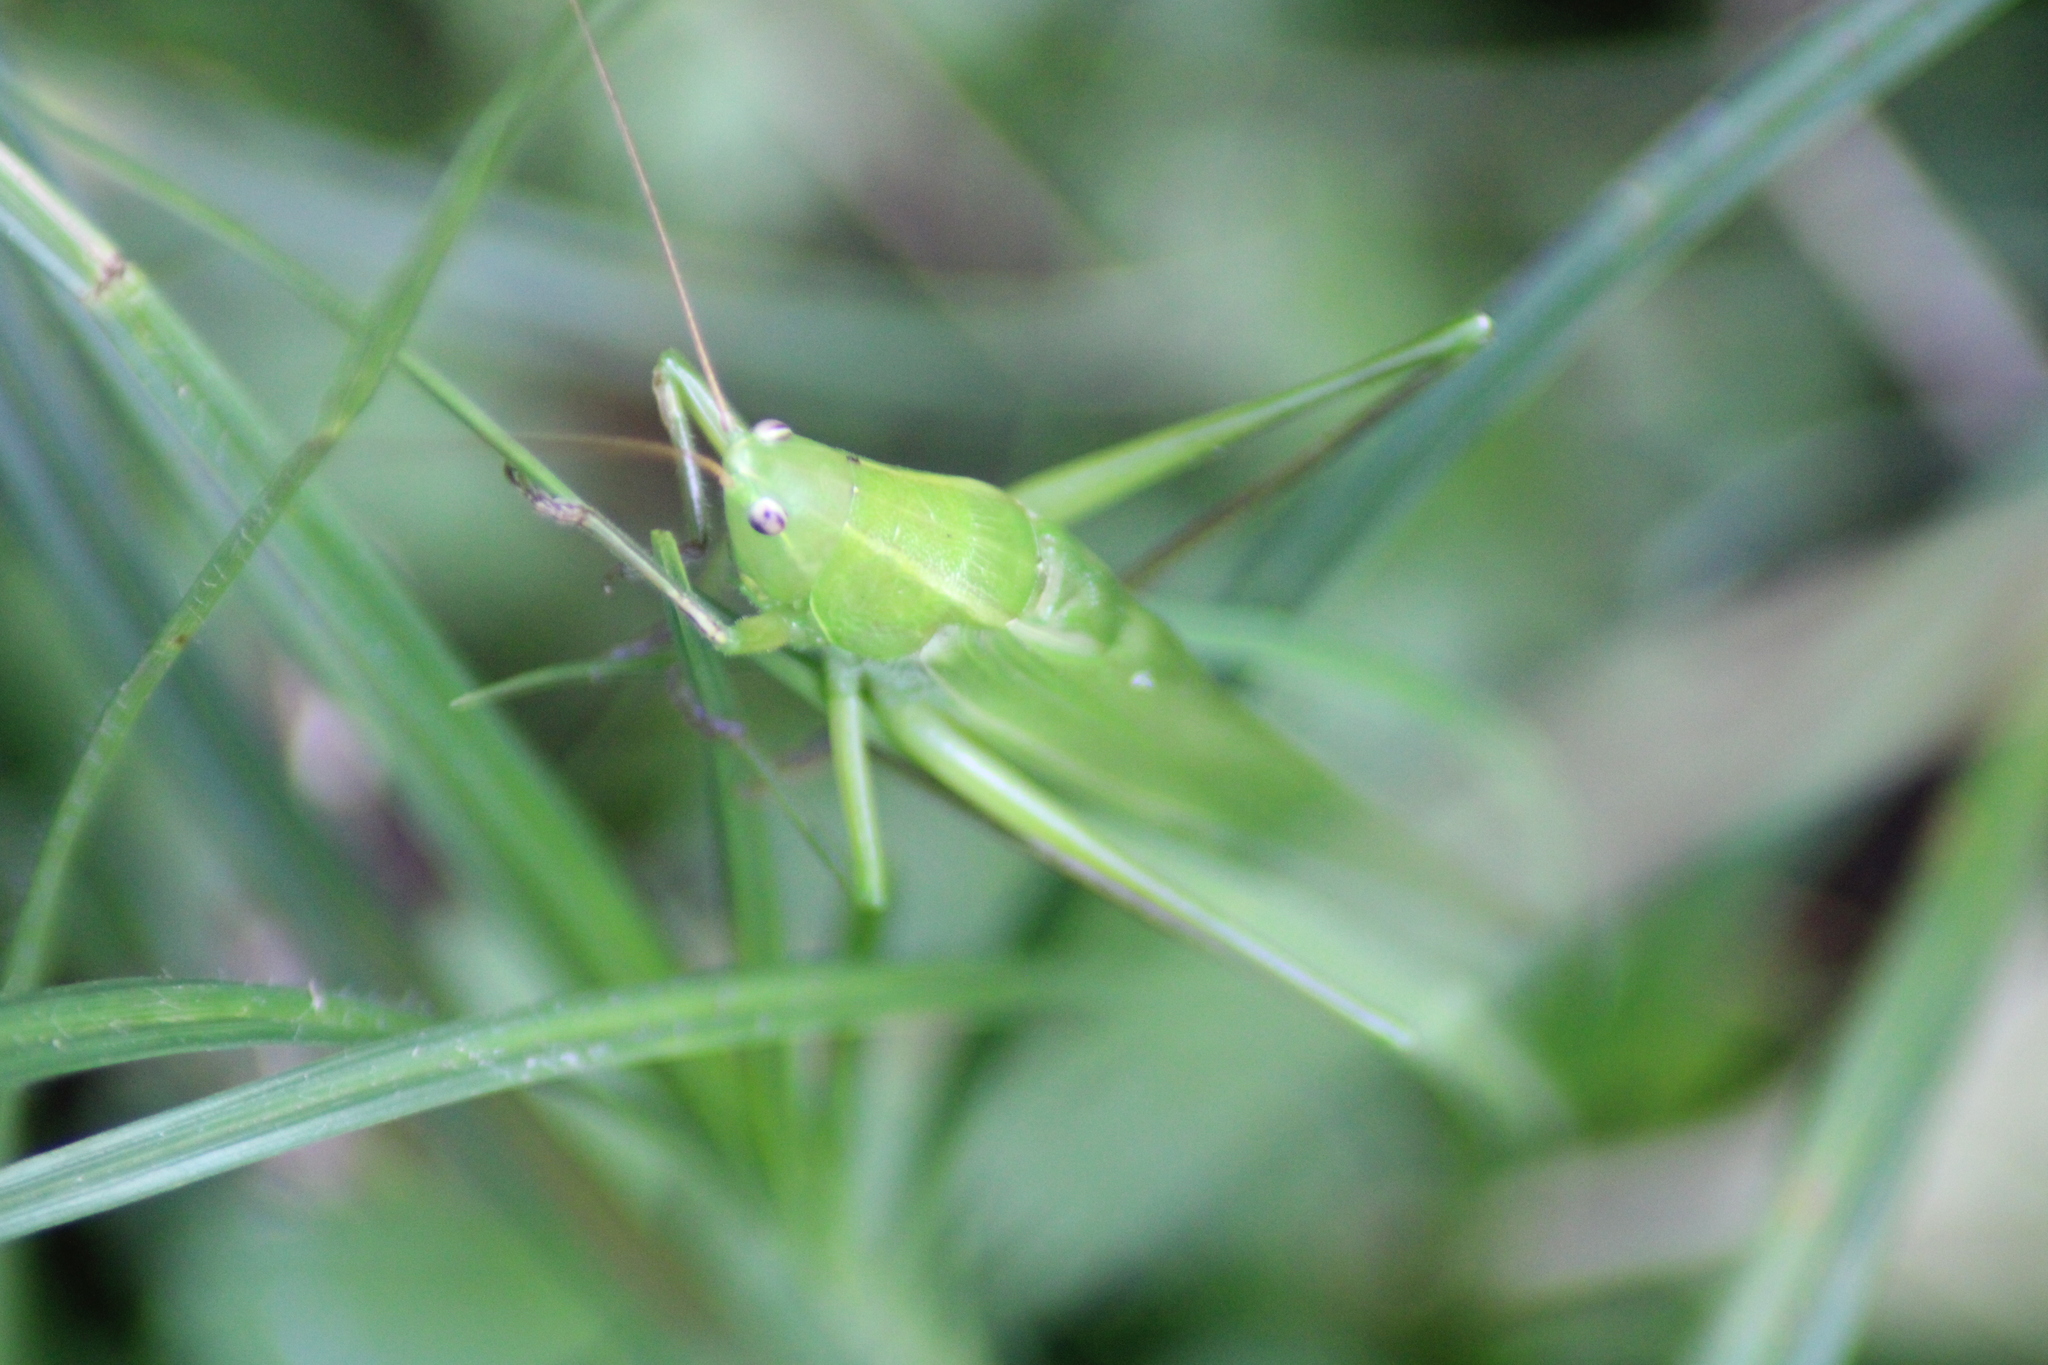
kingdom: Animalia
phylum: Arthropoda
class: Insecta
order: Orthoptera
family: Tettigoniidae
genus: Ruspolia
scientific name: Ruspolia nitidula
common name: Large conehead
